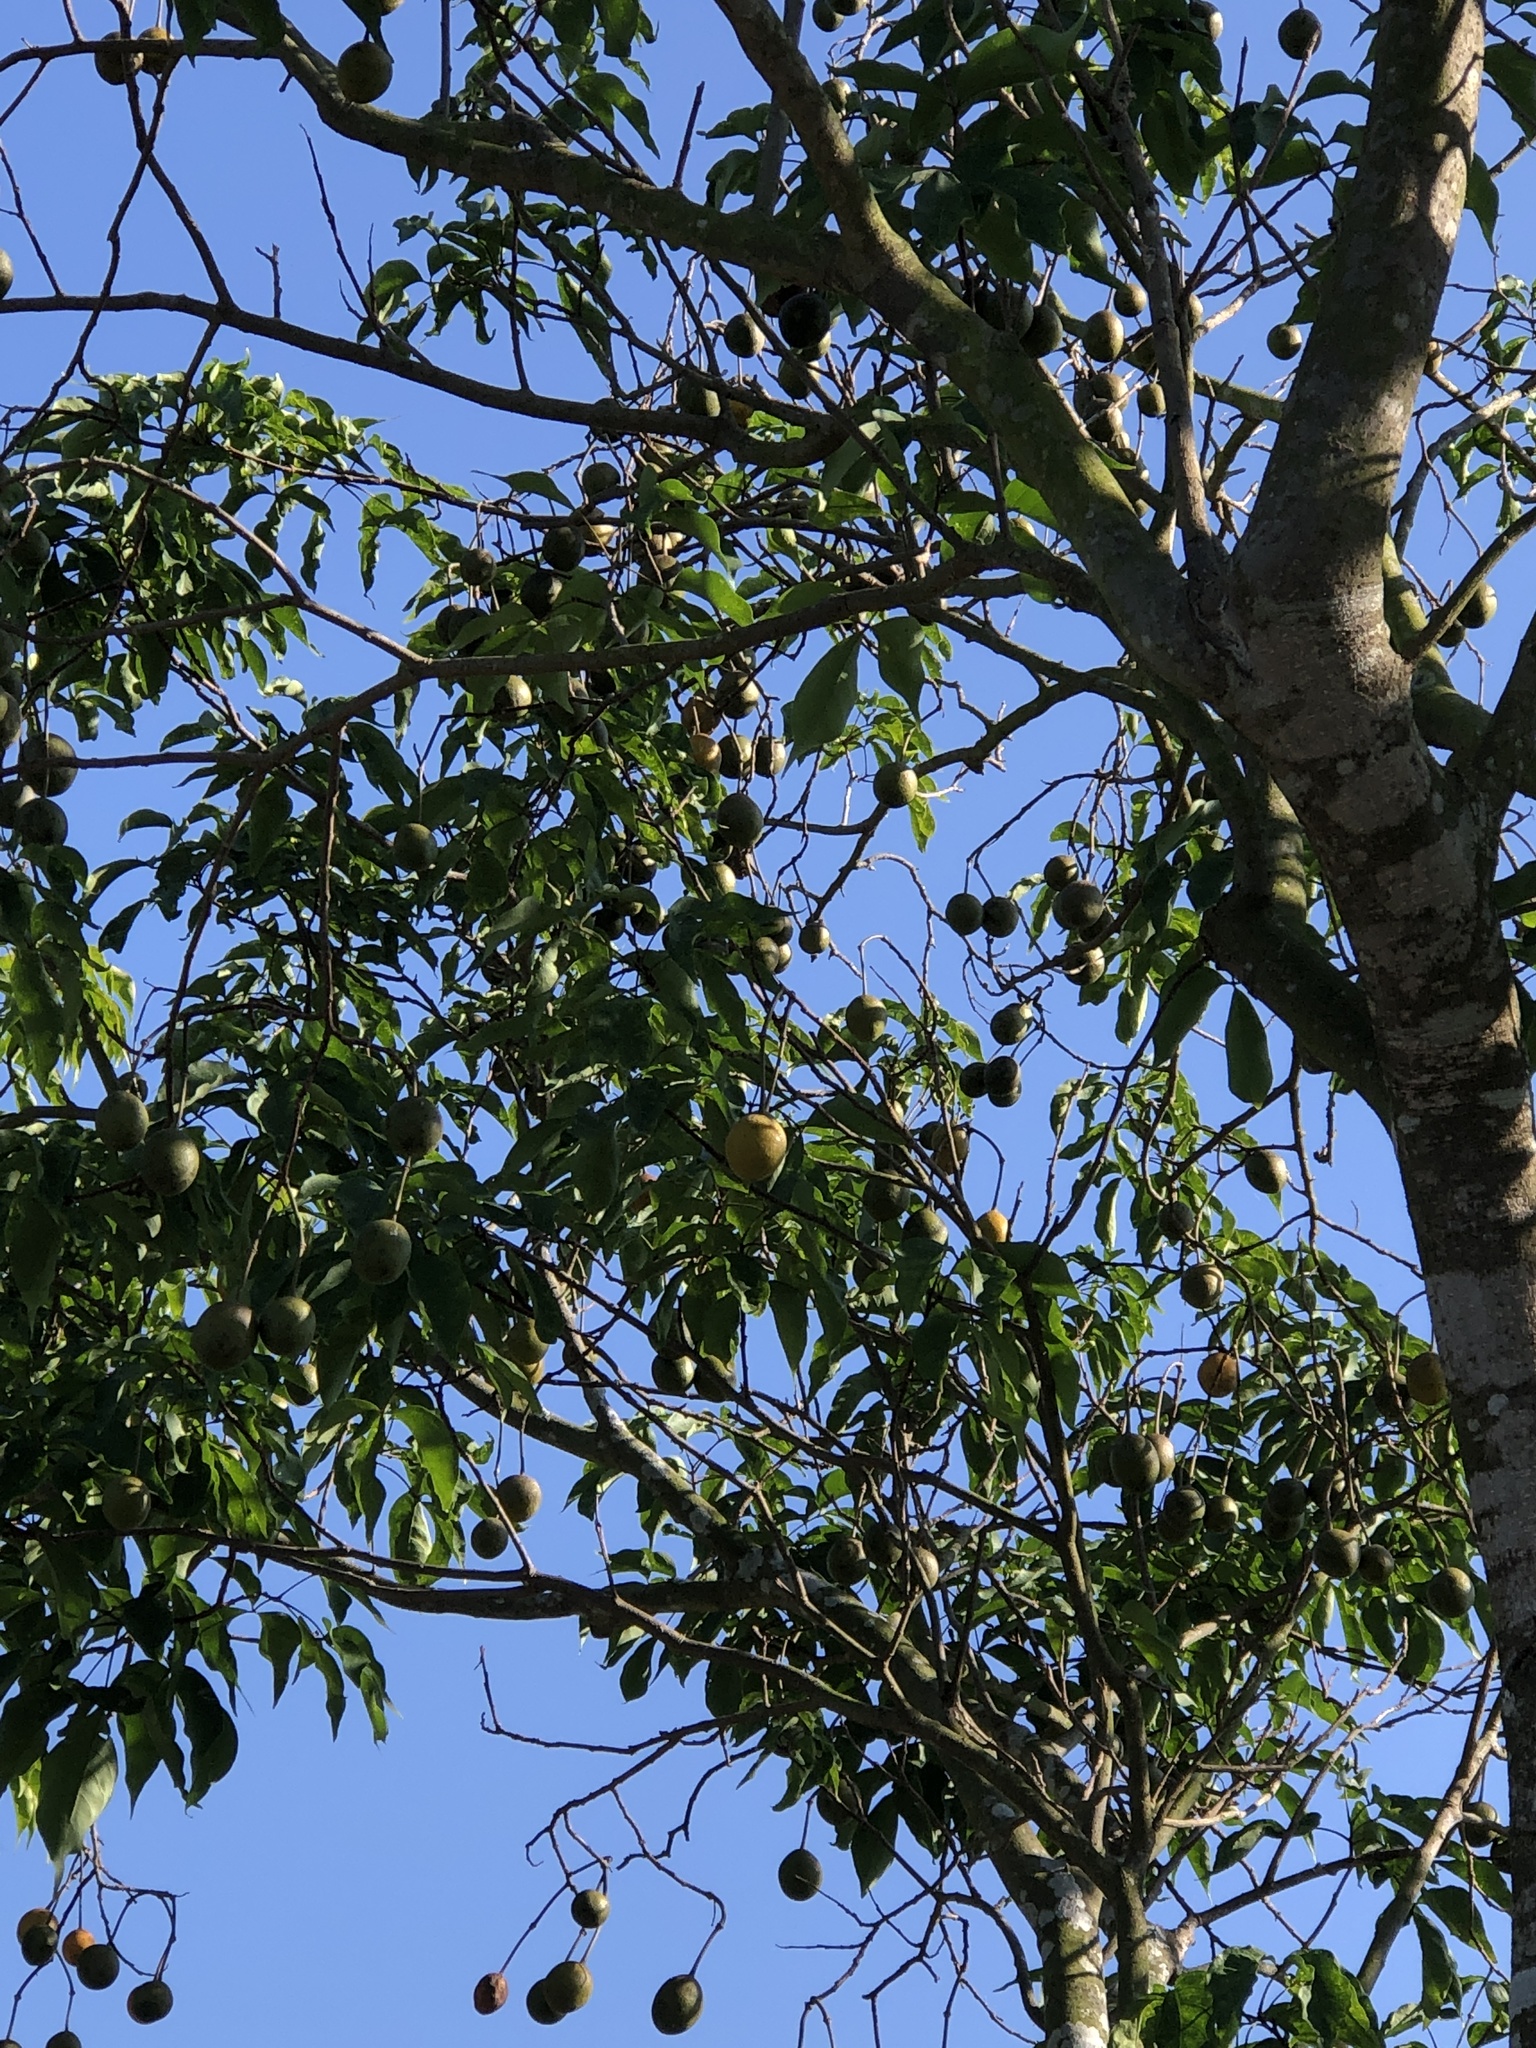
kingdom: Plantae
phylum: Tracheophyta
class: Magnoliopsida
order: Brassicales
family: Capparaceae
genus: Crateva
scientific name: Crateva adansonii
